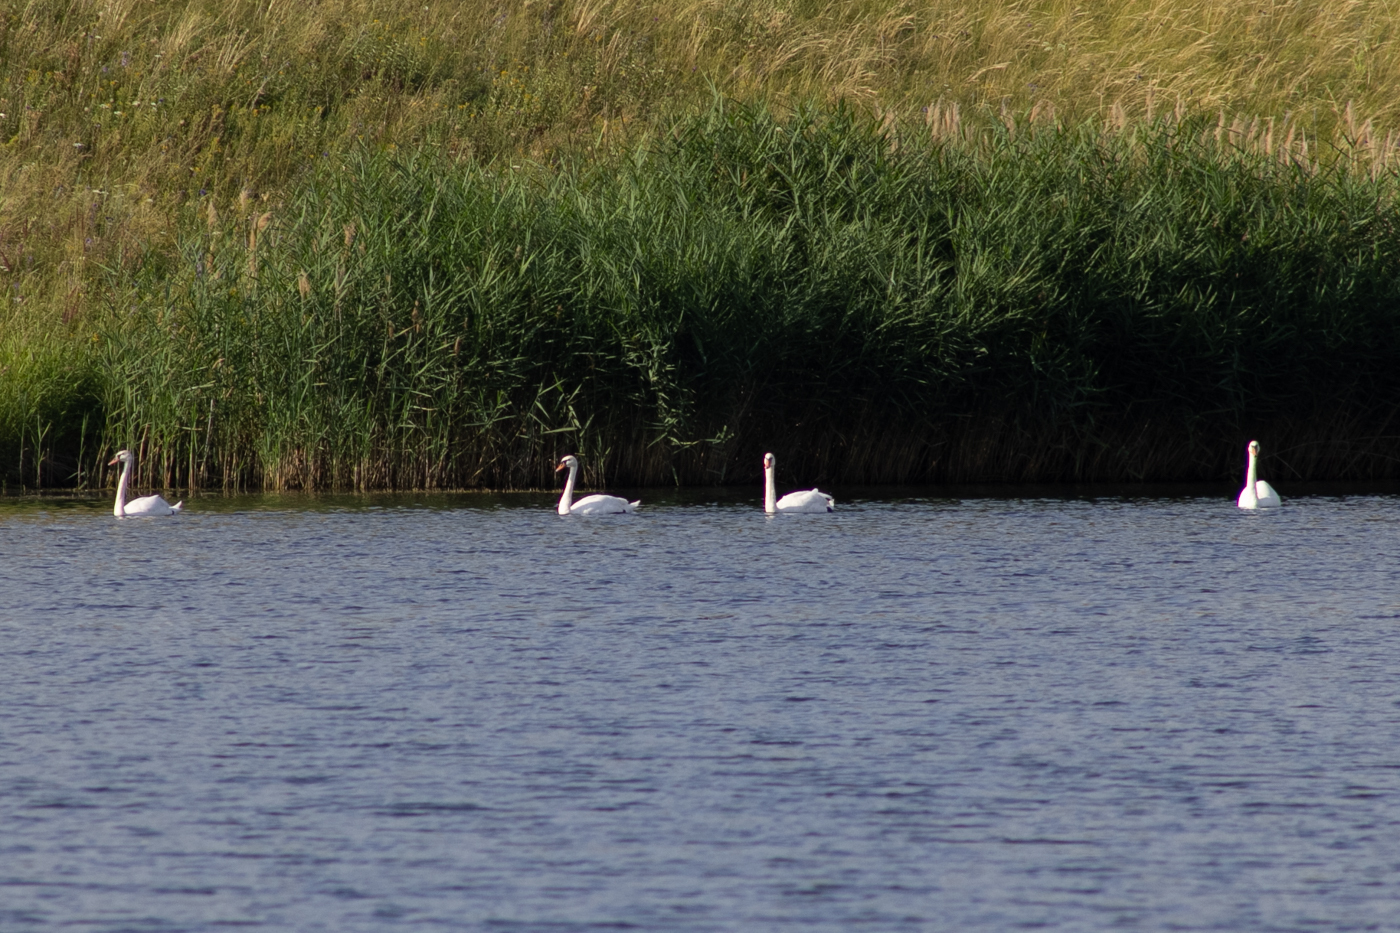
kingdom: Animalia
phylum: Chordata
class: Aves
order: Anseriformes
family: Anatidae
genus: Cygnus
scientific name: Cygnus olor
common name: Mute swan
